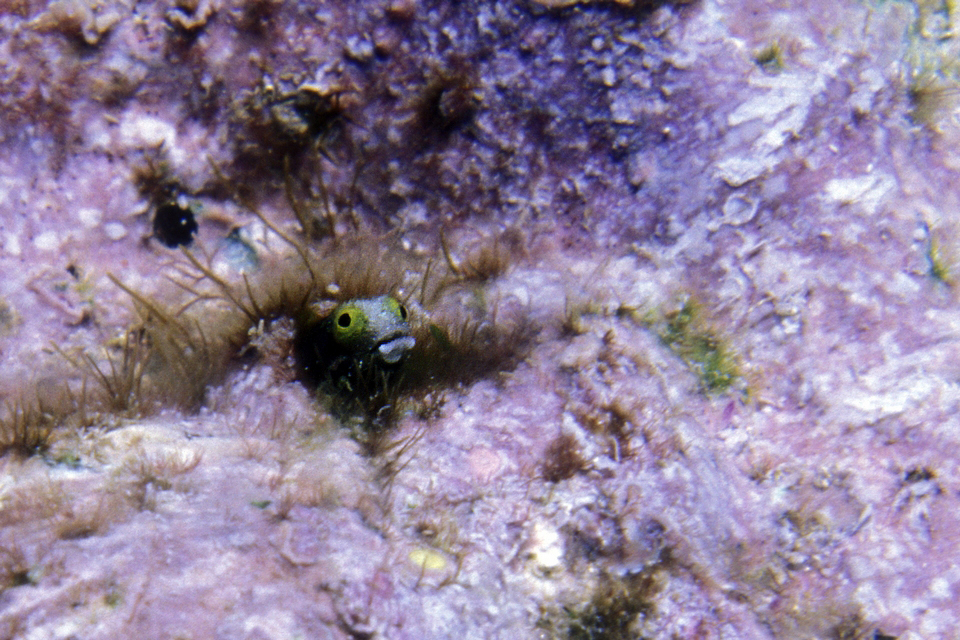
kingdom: Animalia
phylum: Chordata
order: Perciformes
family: Chaenopsidae
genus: Acanthemblemaria
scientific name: Acanthemblemaria spinosa
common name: Spinyhead blenny
